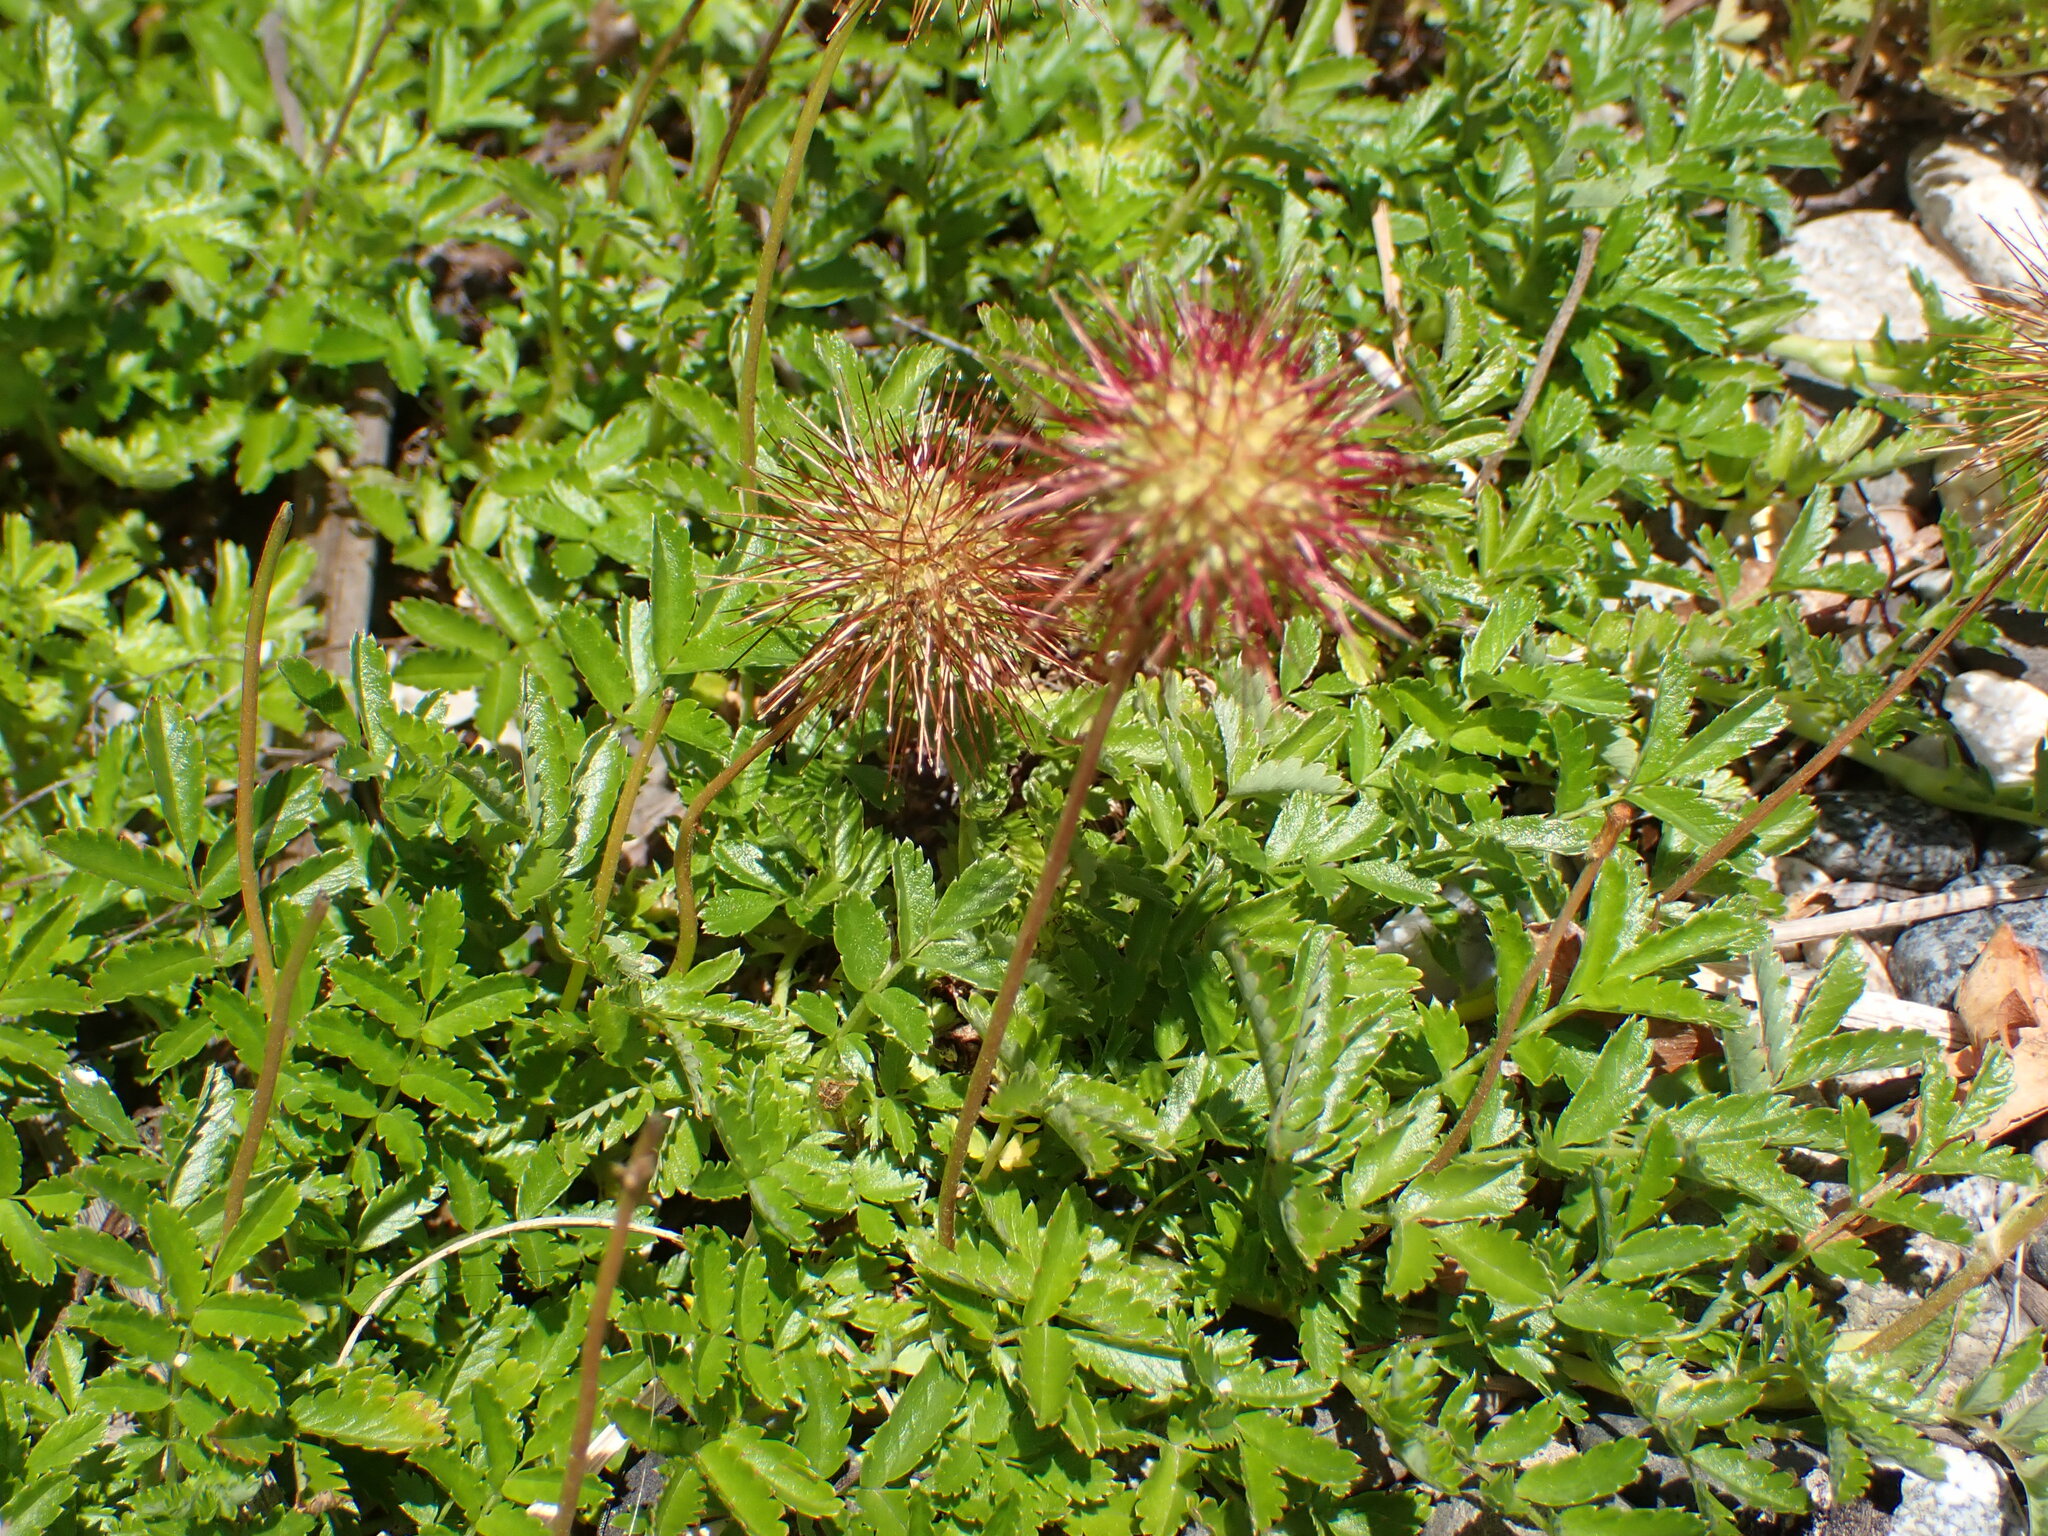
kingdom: Plantae
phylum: Tracheophyta
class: Magnoliopsida
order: Rosales
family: Rosaceae
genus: Acaena
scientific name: Acaena novae-zelandiae
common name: Pirri-pirri-bur
